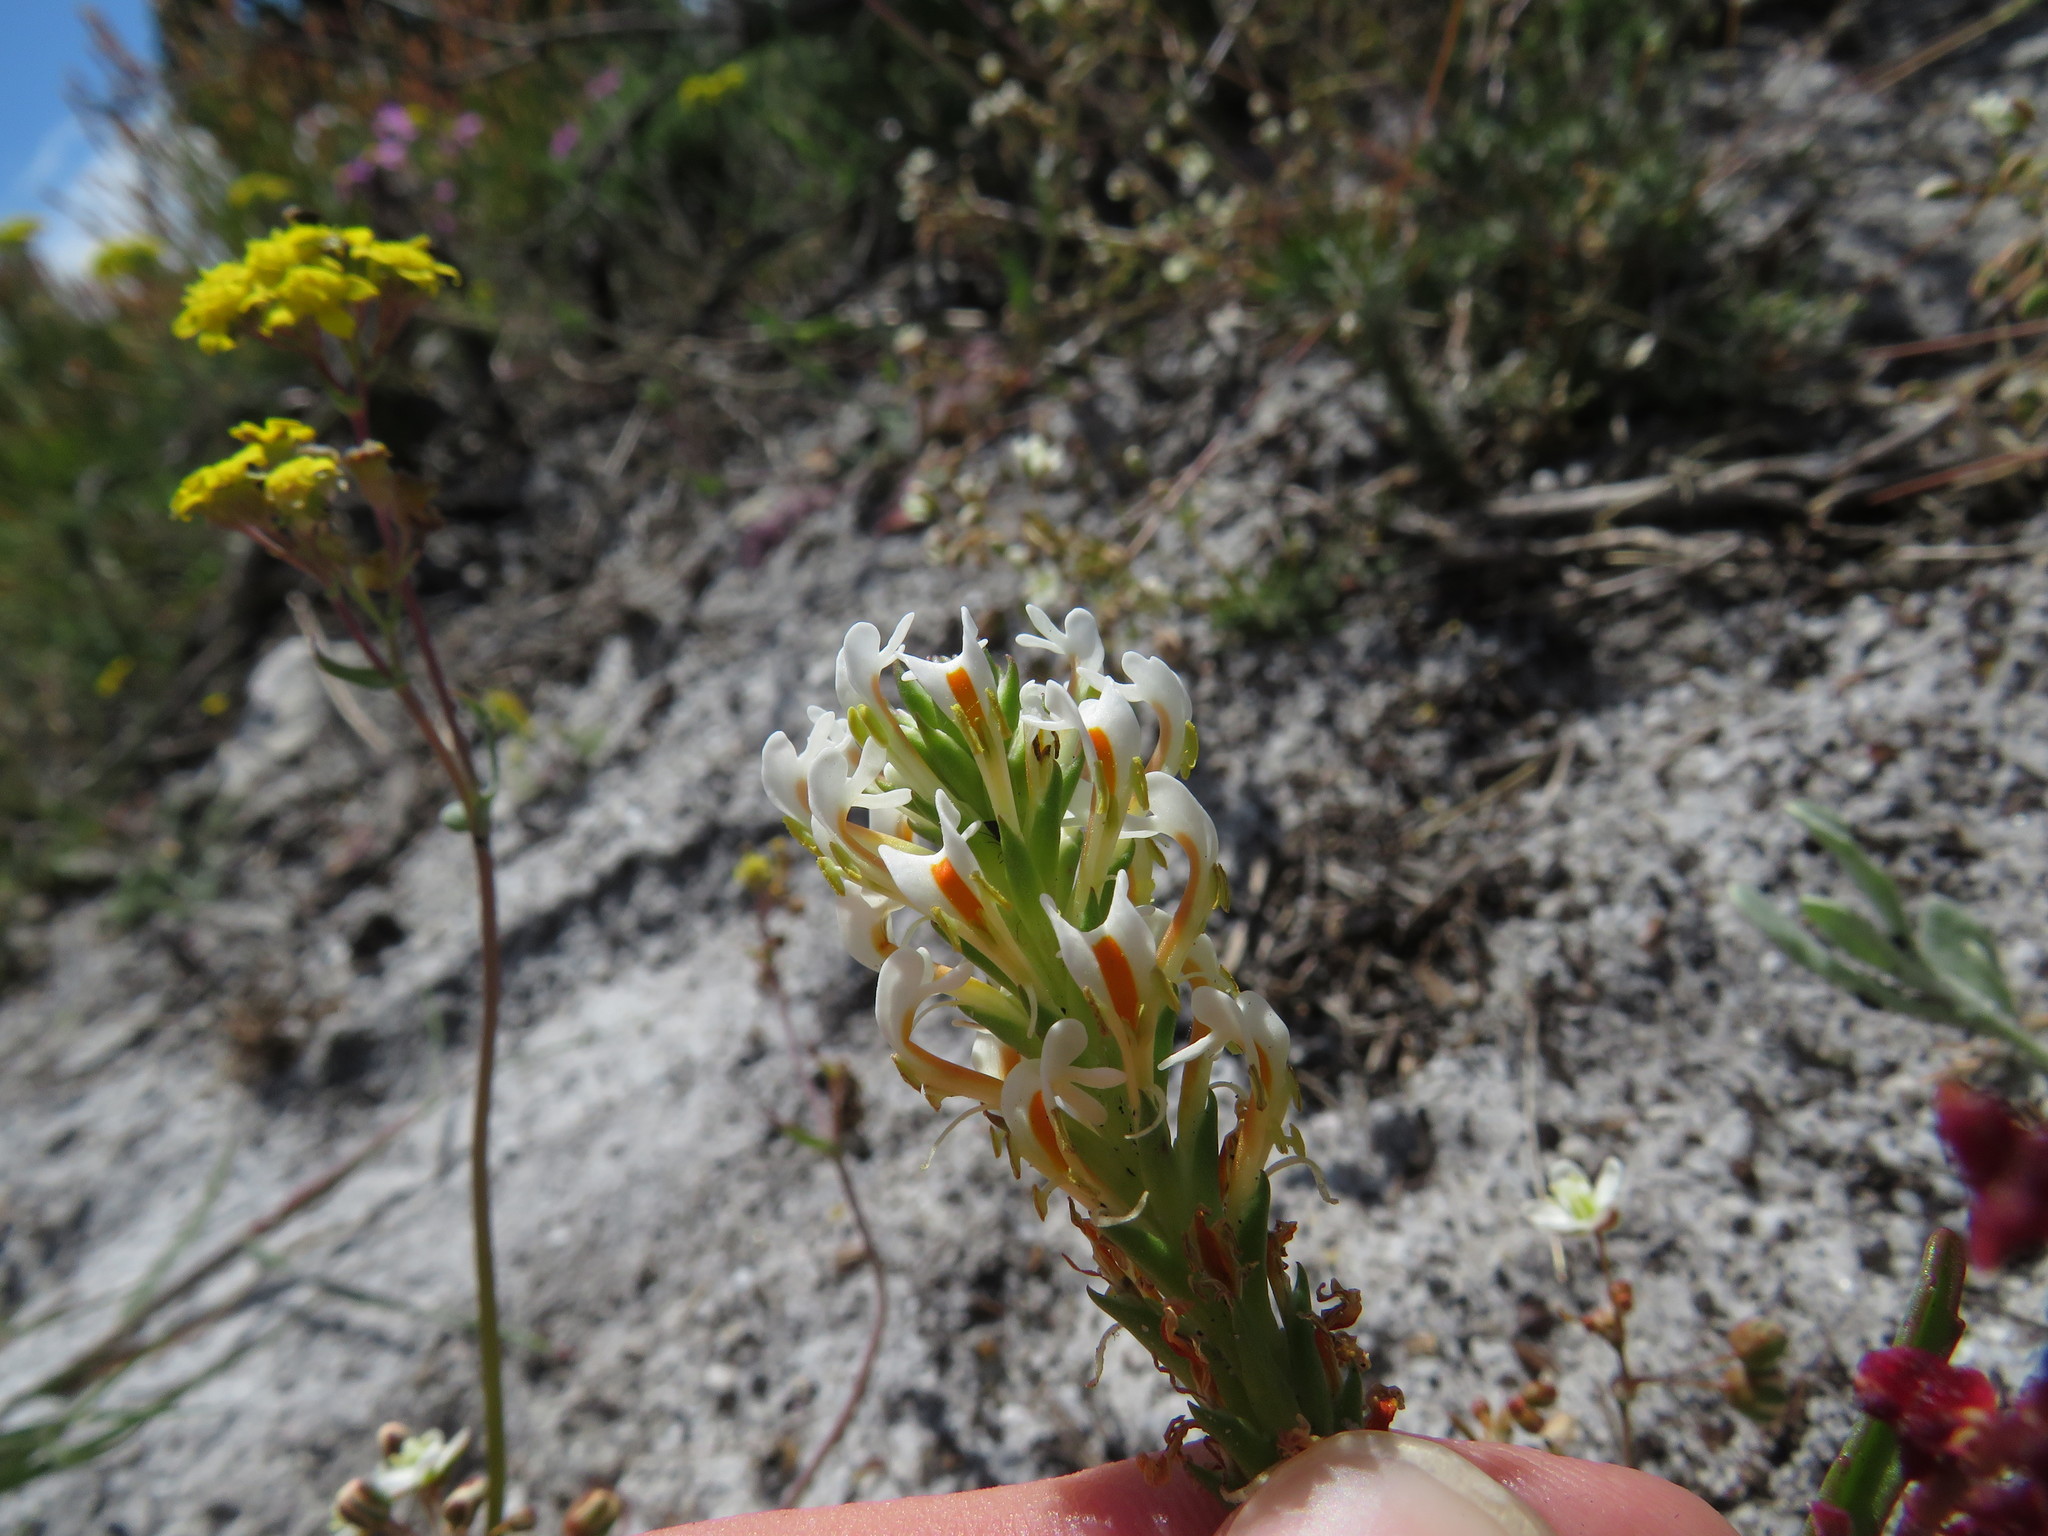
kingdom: Plantae
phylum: Tracheophyta
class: Magnoliopsida
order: Lamiales
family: Scrophulariaceae
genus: Hebenstretia
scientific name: Hebenstretia dentata
